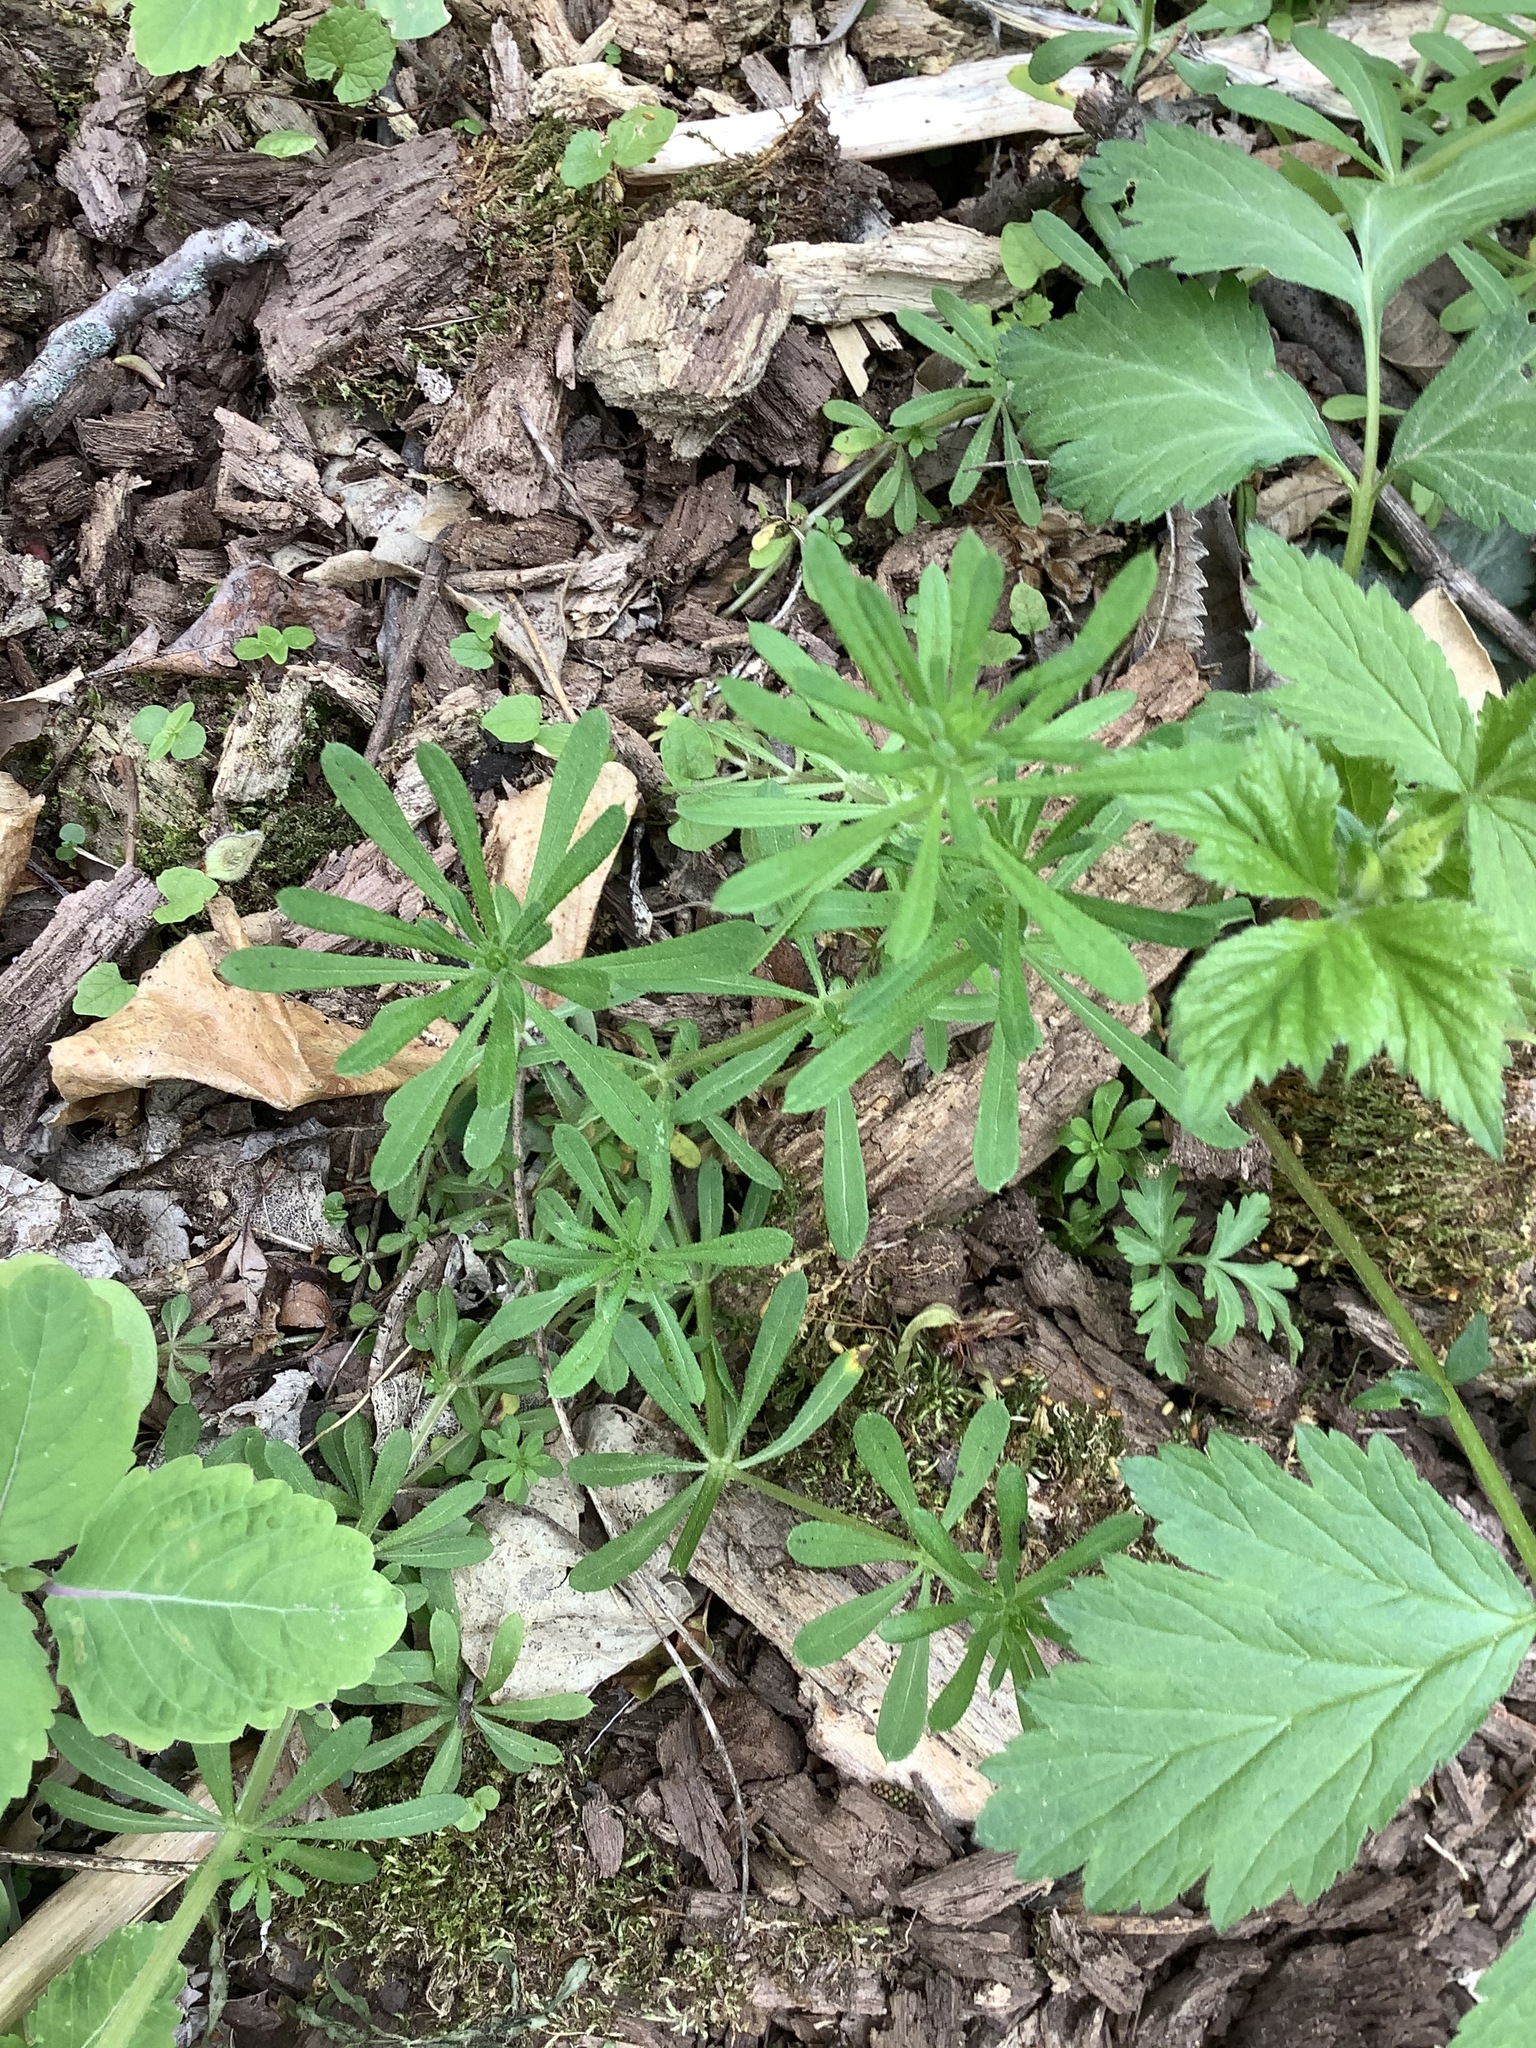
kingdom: Plantae
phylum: Tracheophyta
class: Magnoliopsida
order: Gentianales
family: Rubiaceae
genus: Galium
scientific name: Galium aparine
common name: Cleavers
